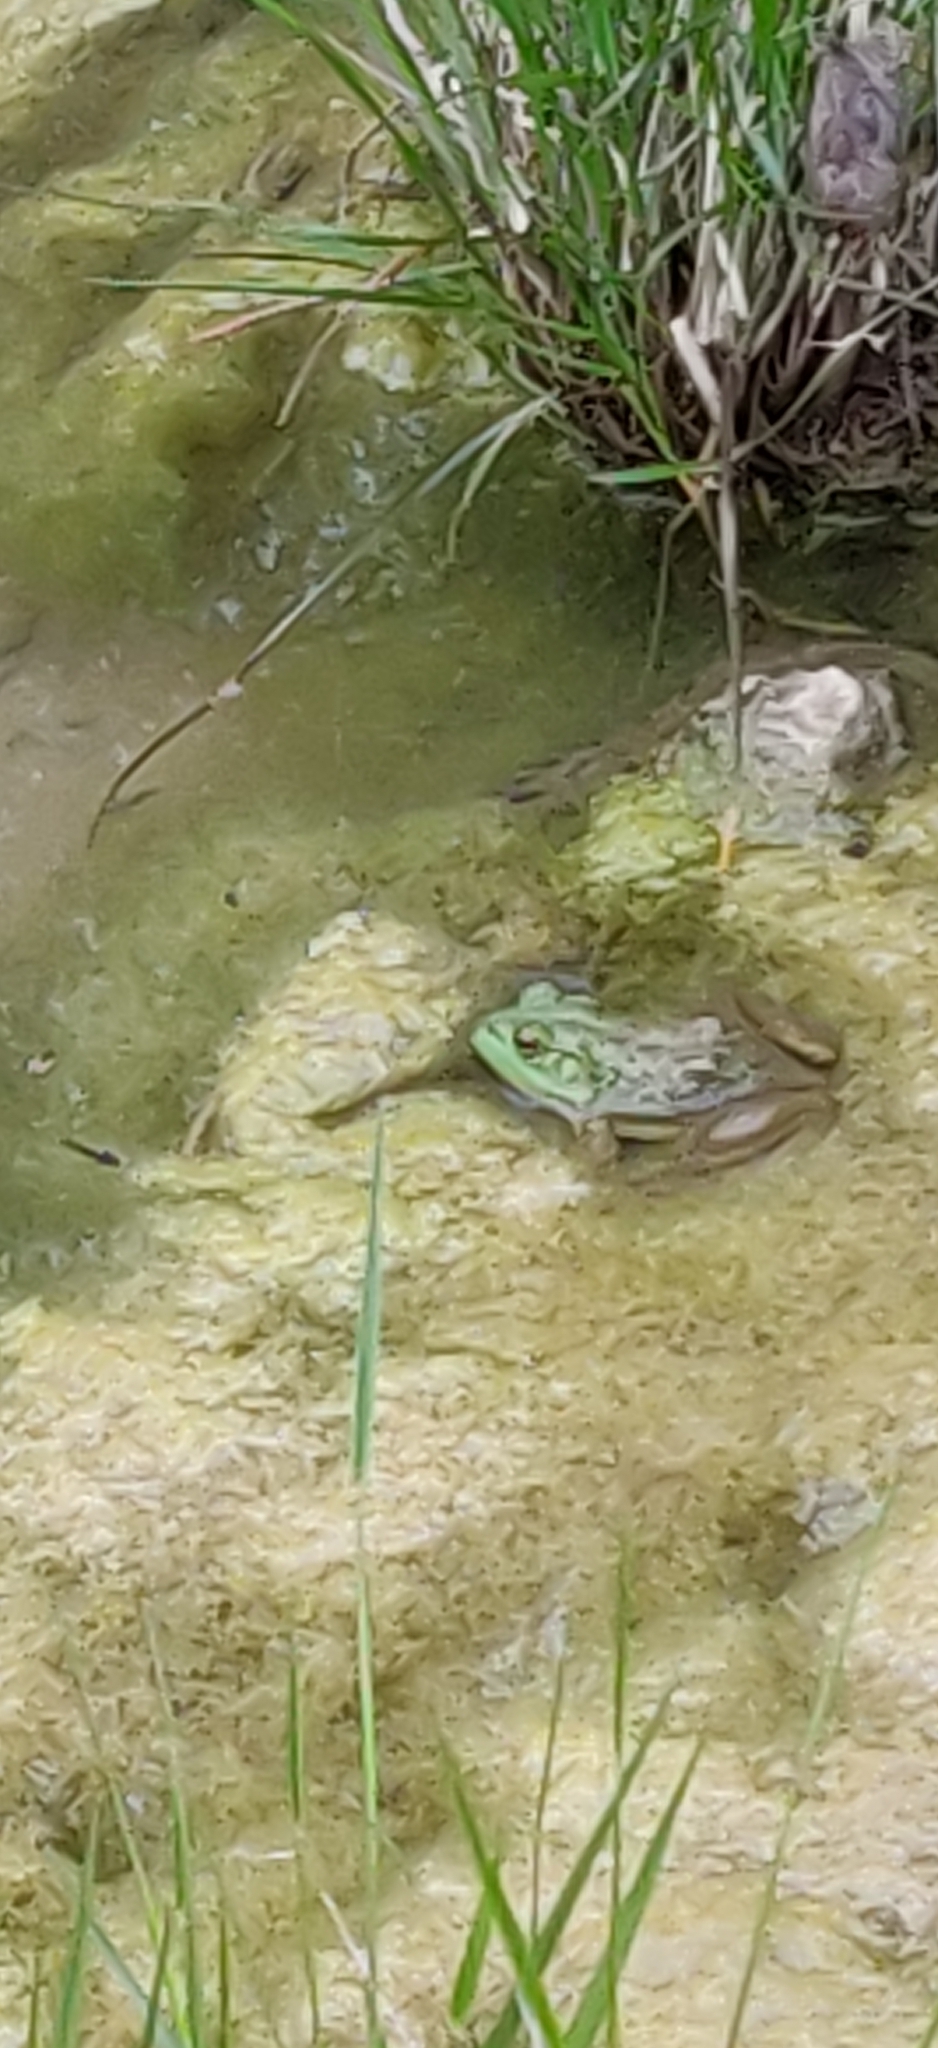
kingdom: Animalia
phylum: Chordata
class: Amphibia
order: Anura
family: Ranidae
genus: Lithobates
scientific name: Lithobates catesbeianus
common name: American bullfrog
